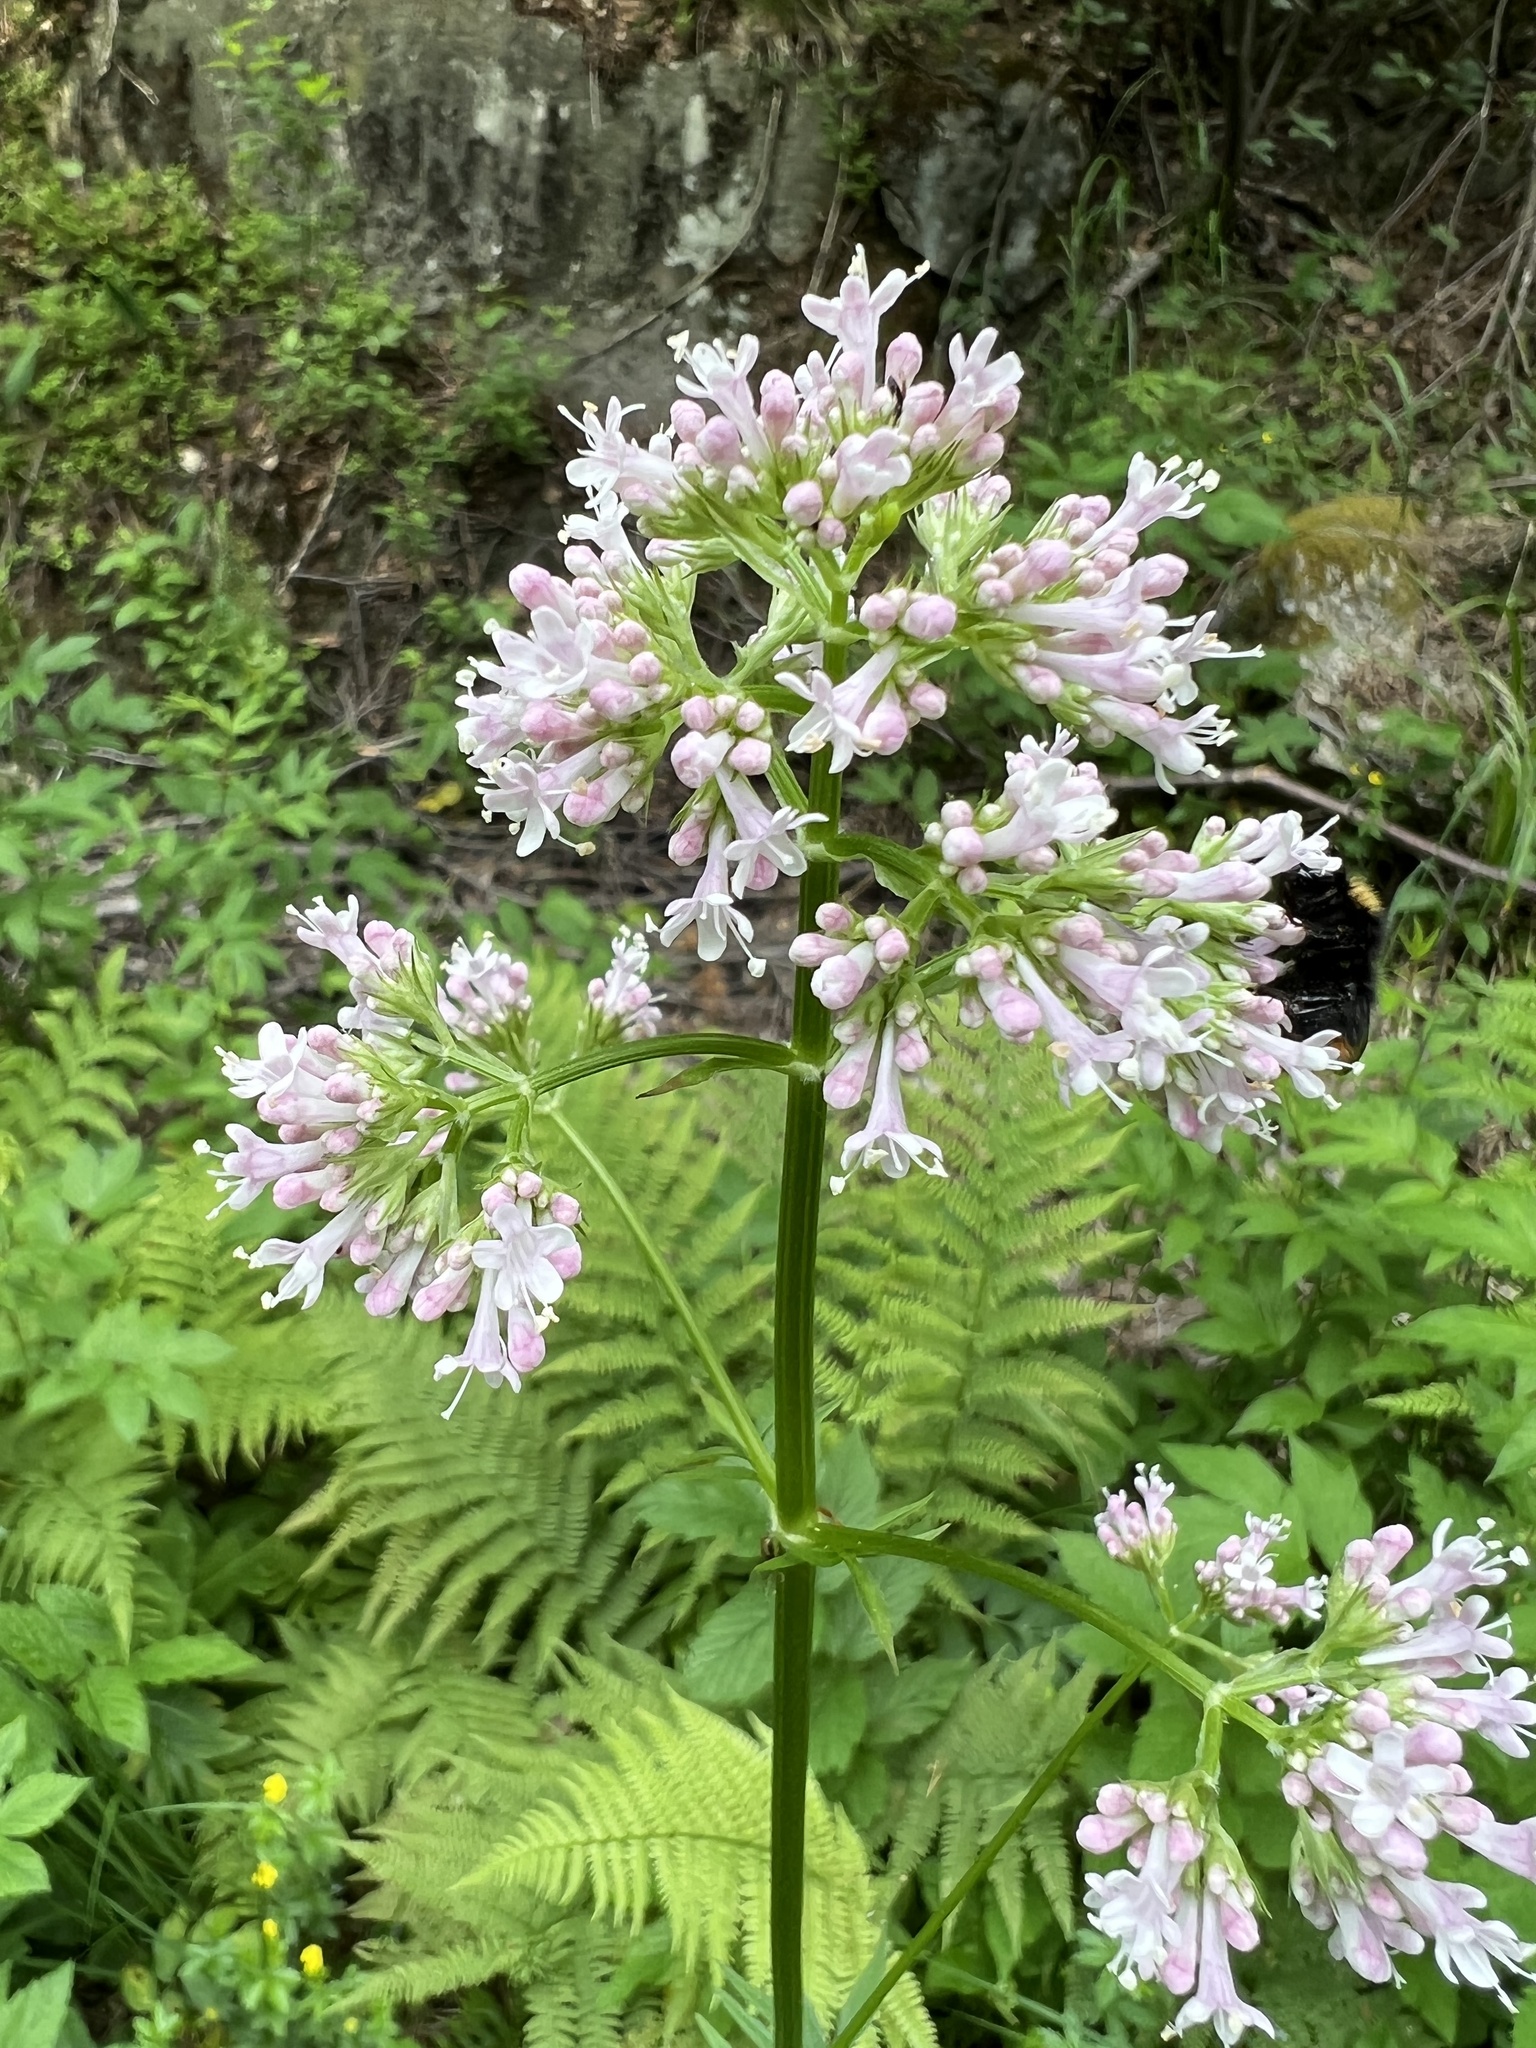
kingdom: Plantae
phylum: Tracheophyta
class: Magnoliopsida
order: Dipsacales
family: Caprifoliaceae
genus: Valeriana
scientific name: Valeriana sambucifolia
